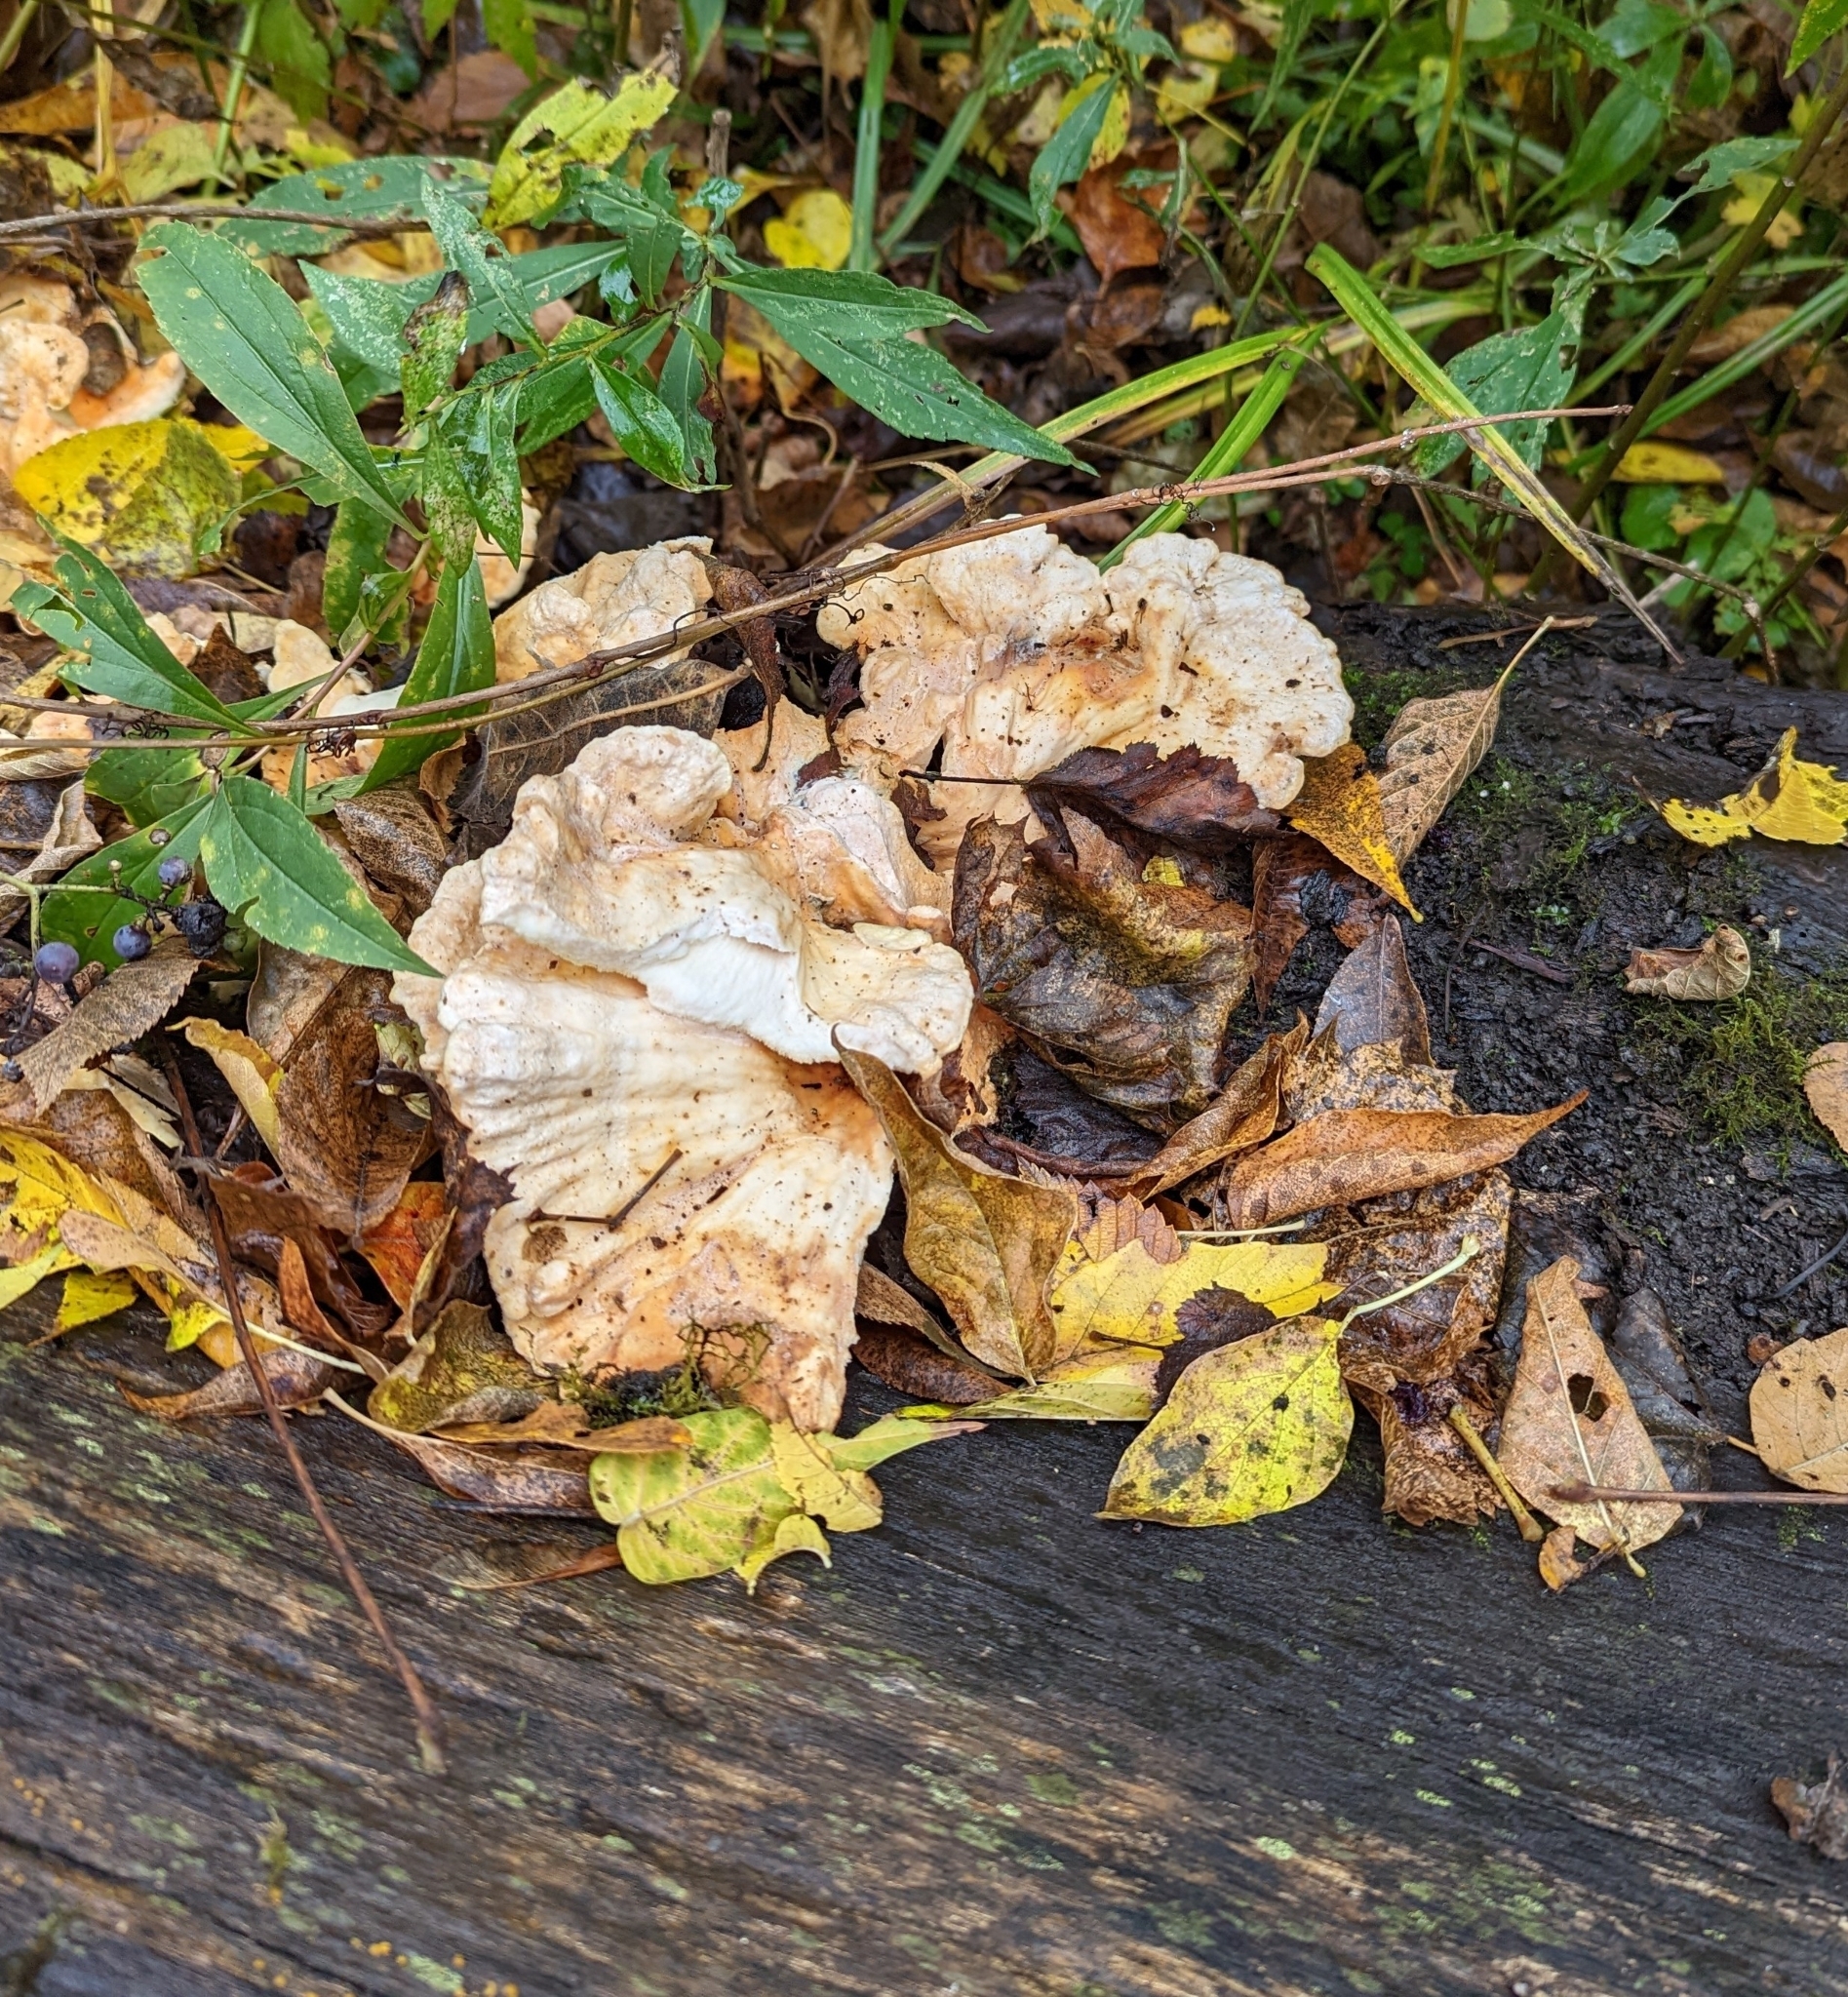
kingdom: Fungi
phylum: Basidiomycota
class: Agaricomycetes
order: Polyporales
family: Laetiporaceae
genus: Laetiporus
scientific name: Laetiporus sulphureus
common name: Chicken of the woods
